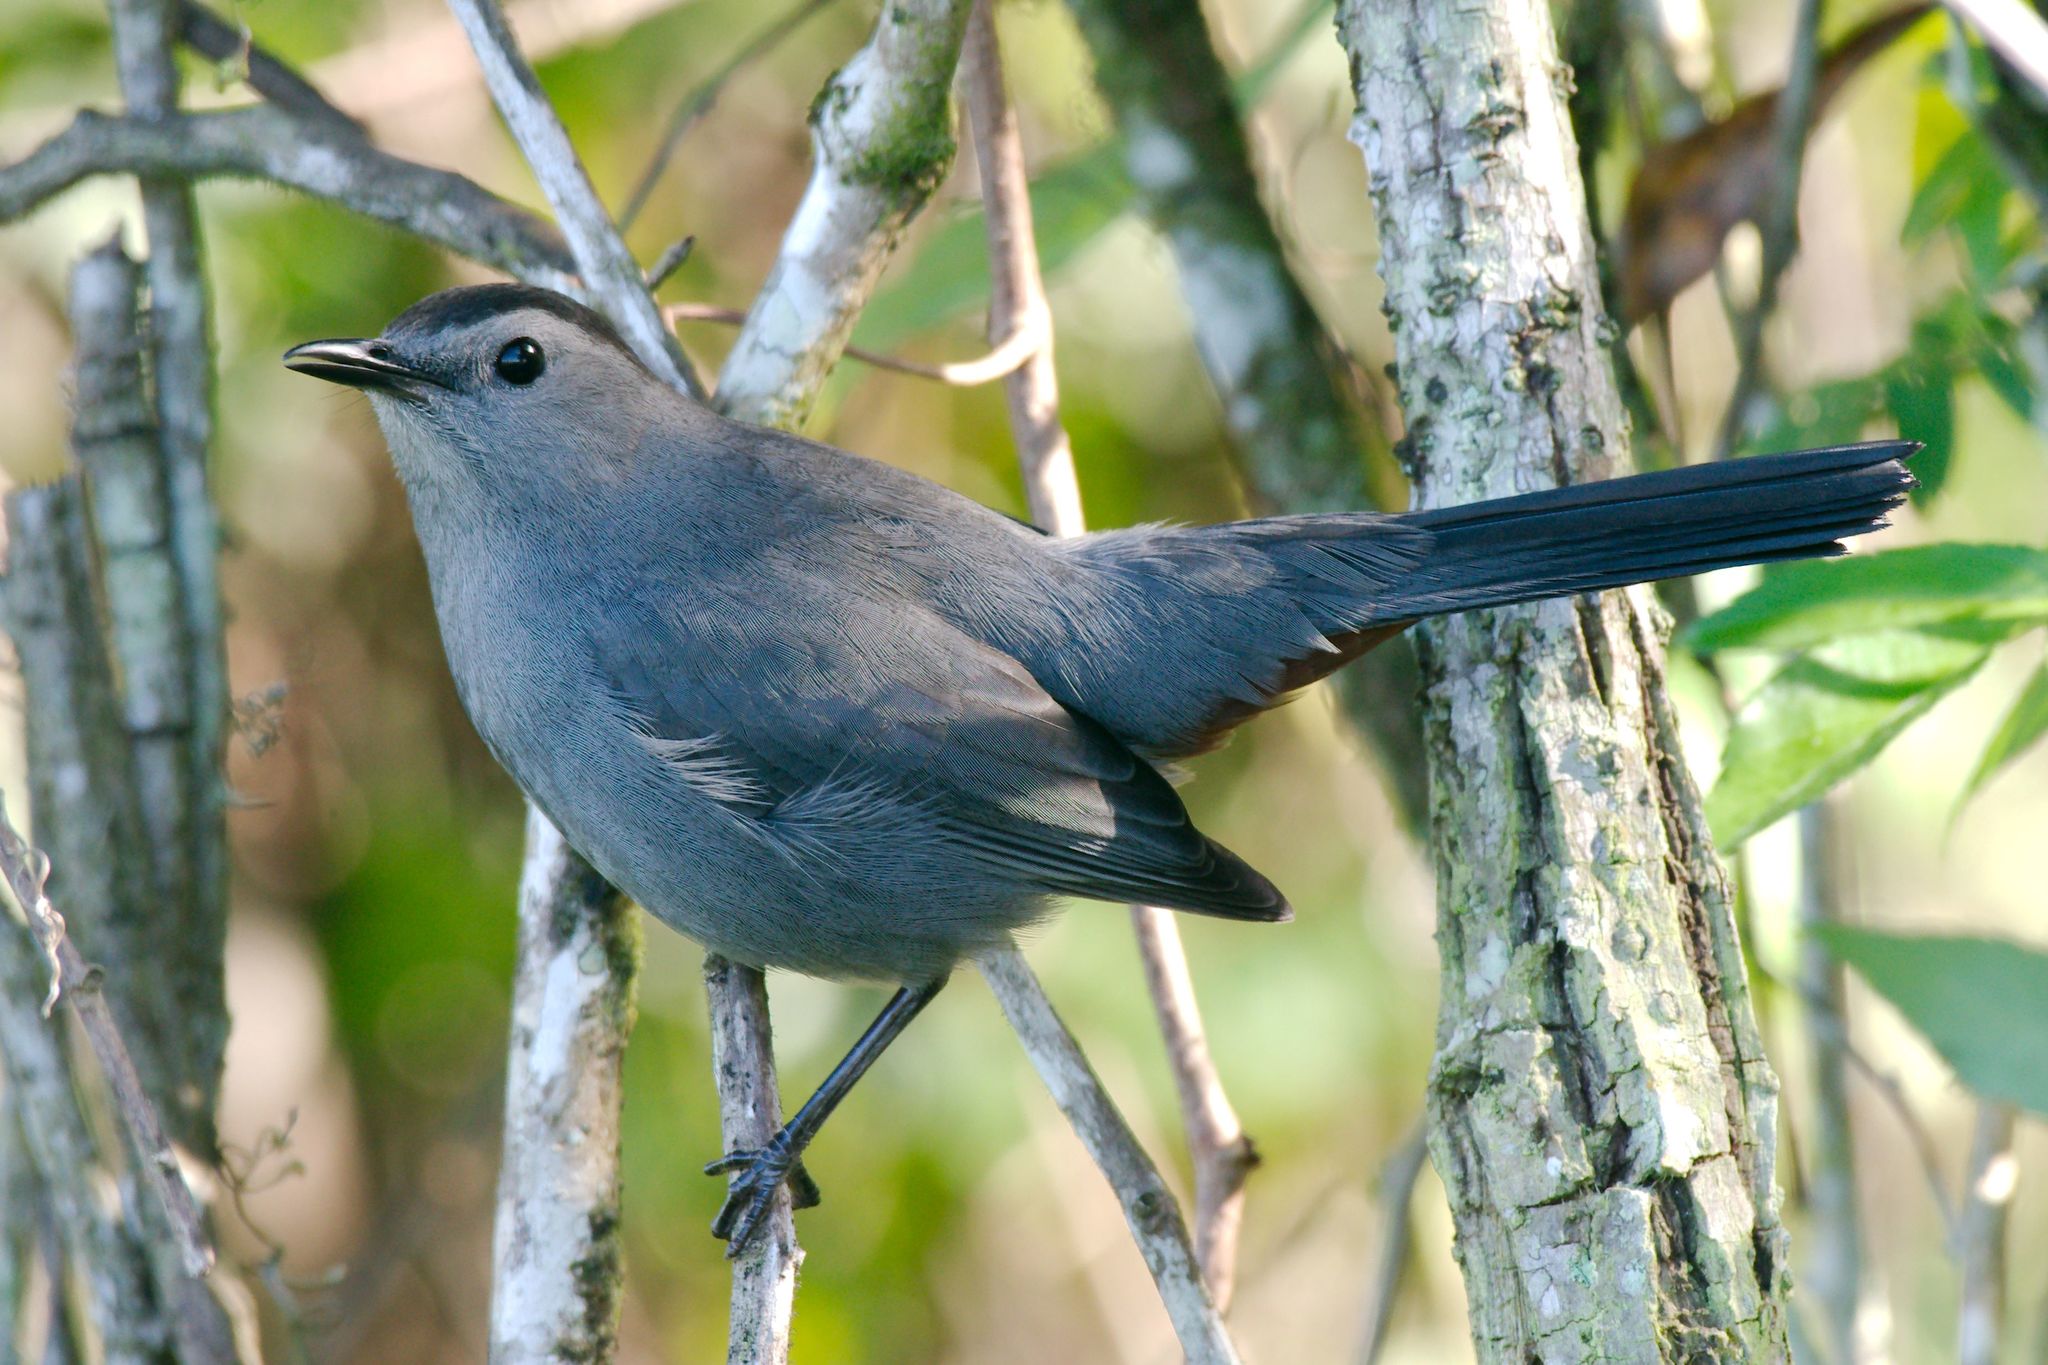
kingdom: Animalia
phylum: Chordata
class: Aves
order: Passeriformes
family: Mimidae
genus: Dumetella
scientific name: Dumetella carolinensis
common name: Gray catbird
